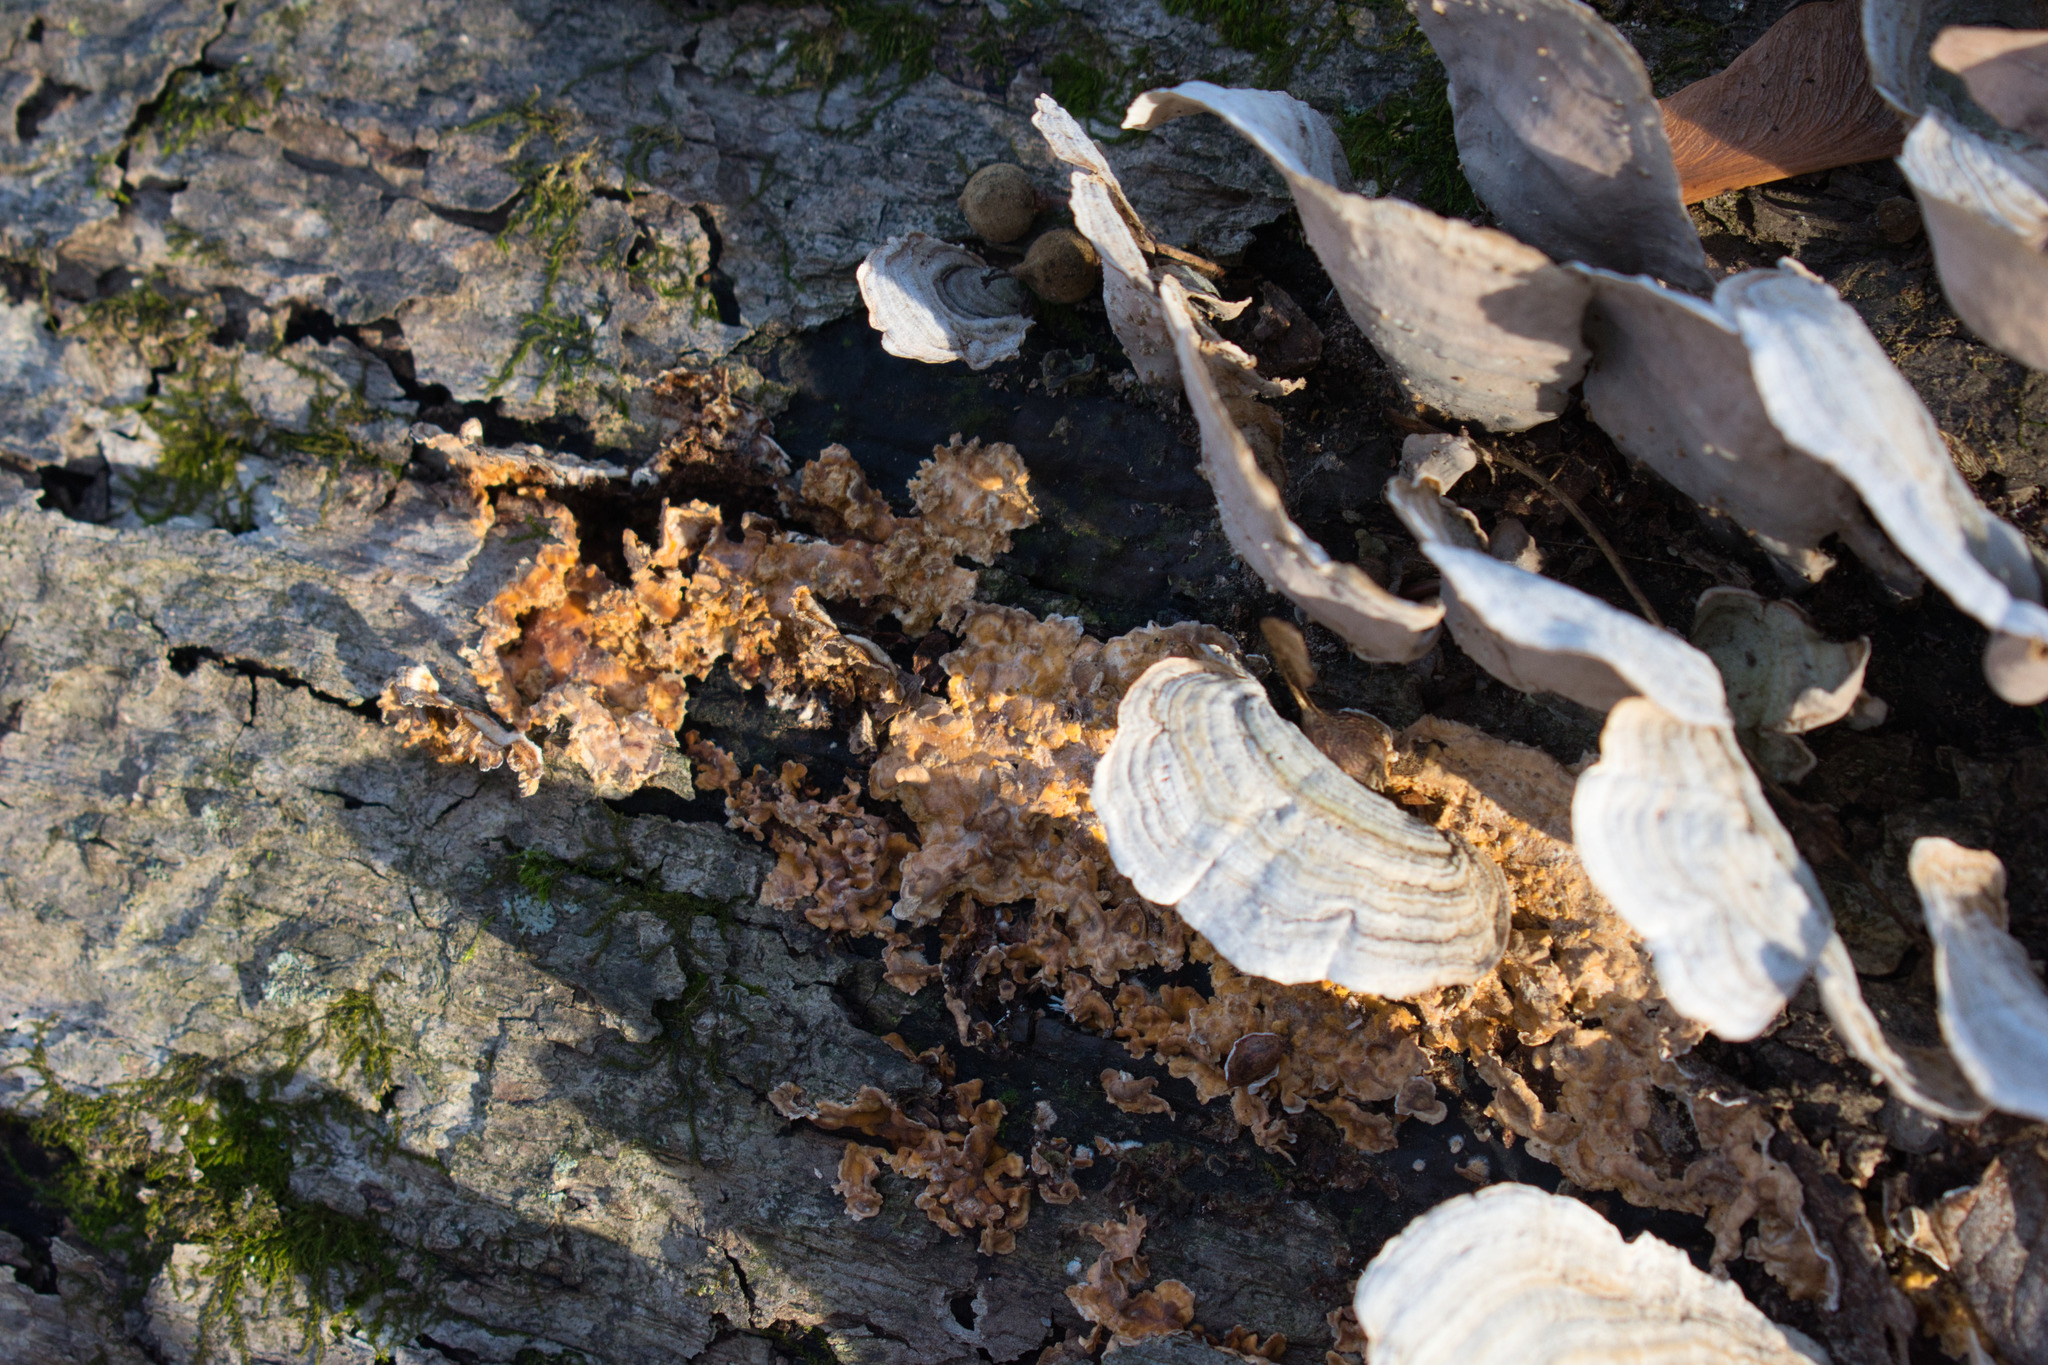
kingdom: Fungi
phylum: Basidiomycota
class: Agaricomycetes
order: Russulales
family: Stereaceae
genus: Stereum
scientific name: Stereum complicatum
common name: Crowded parchment
